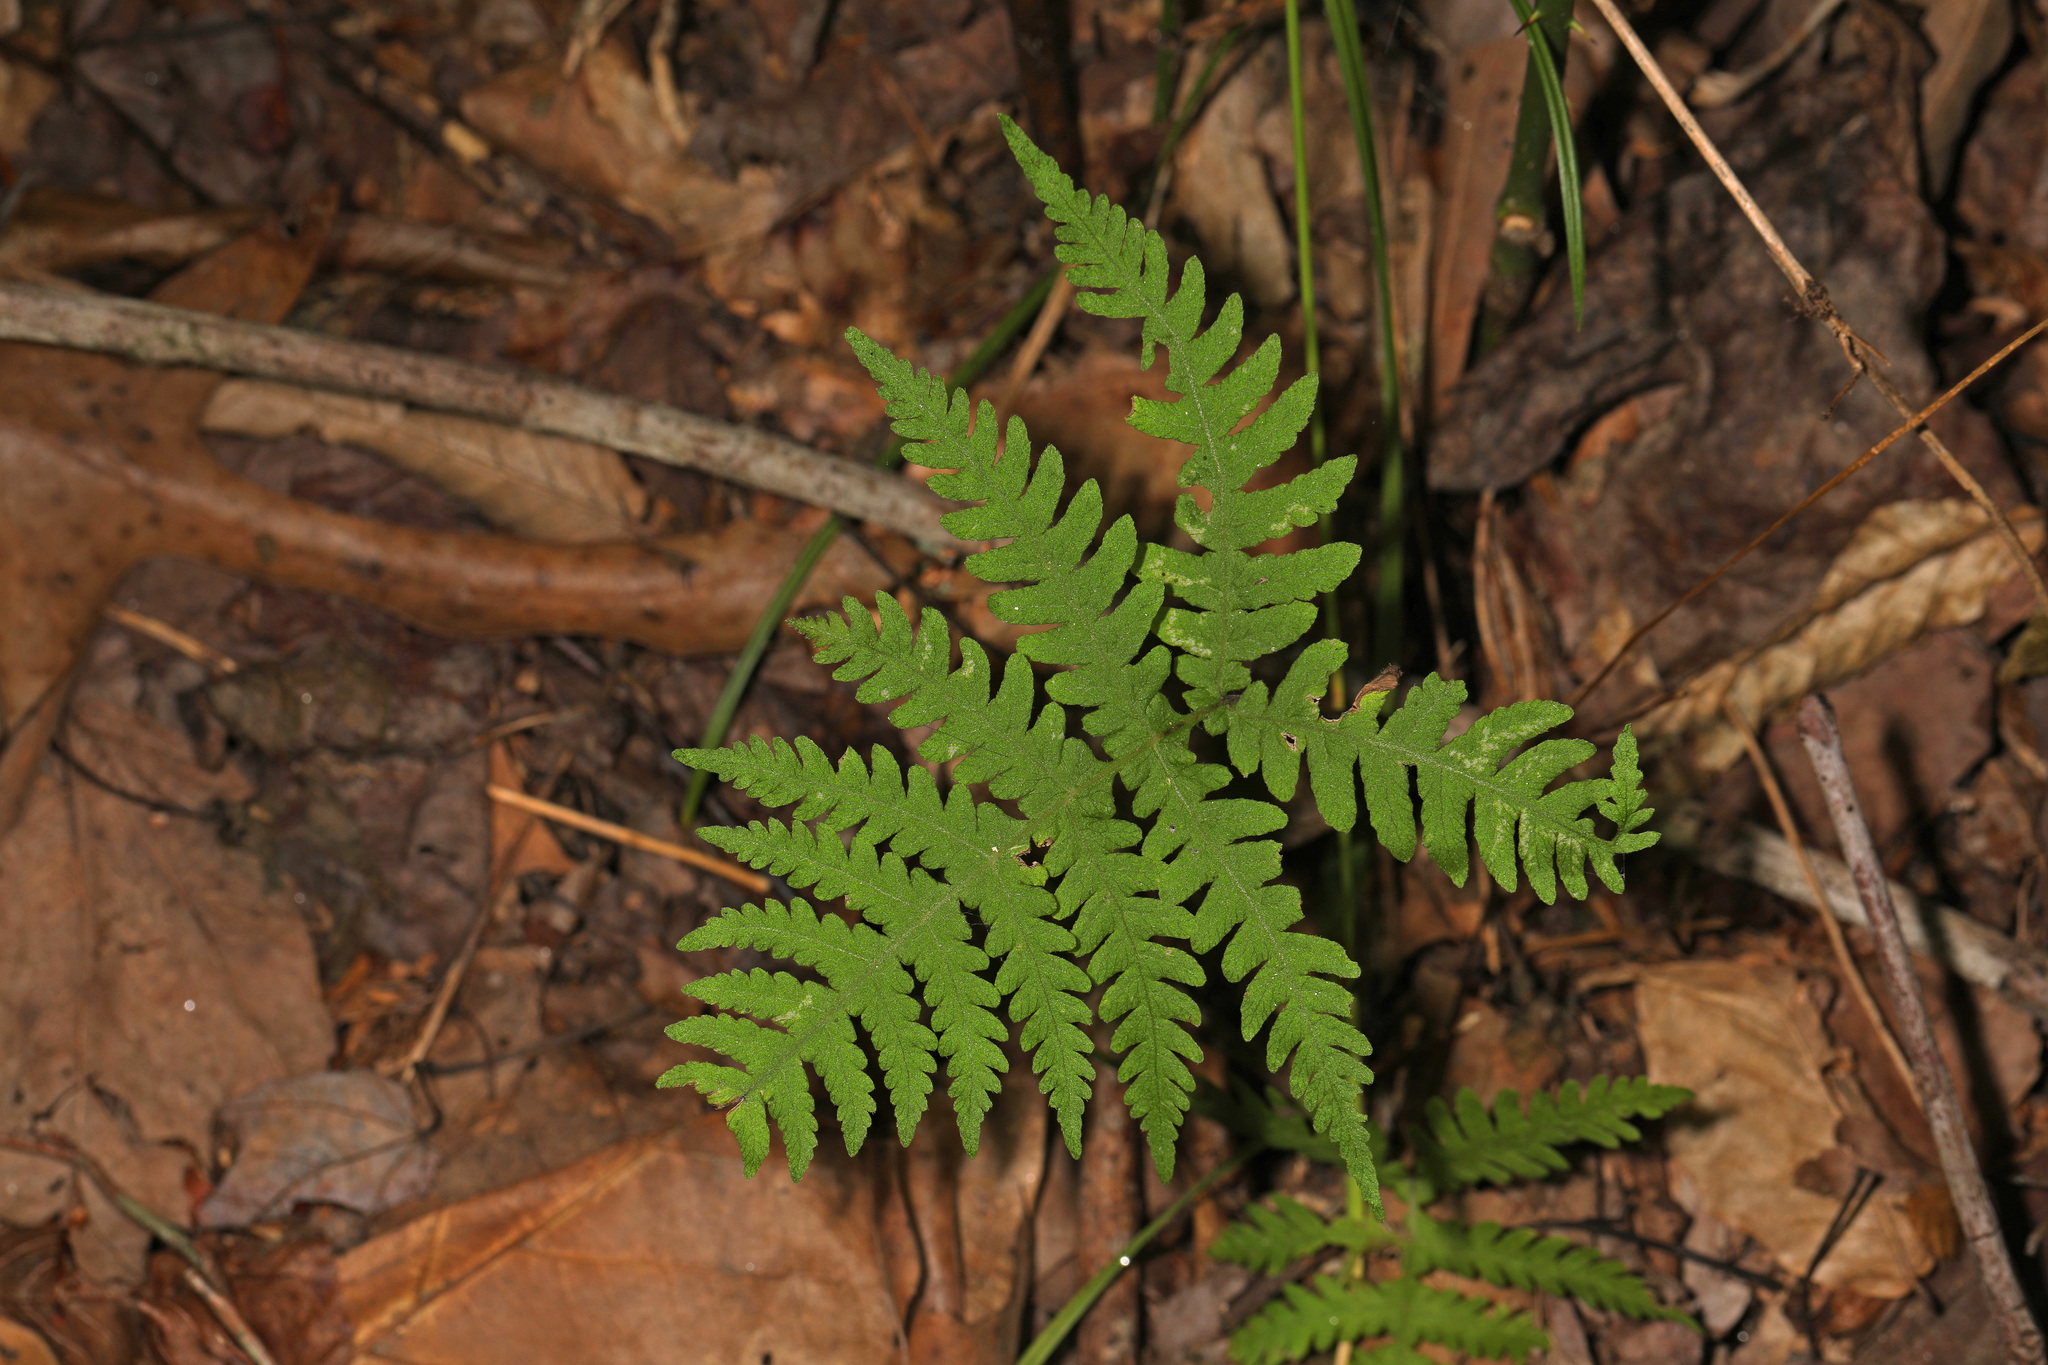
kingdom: Plantae
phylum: Tracheophyta
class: Polypodiopsida
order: Polypodiales
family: Thelypteridaceae
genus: Phegopteris
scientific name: Phegopteris hexagonoptera
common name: Broad beech fern
